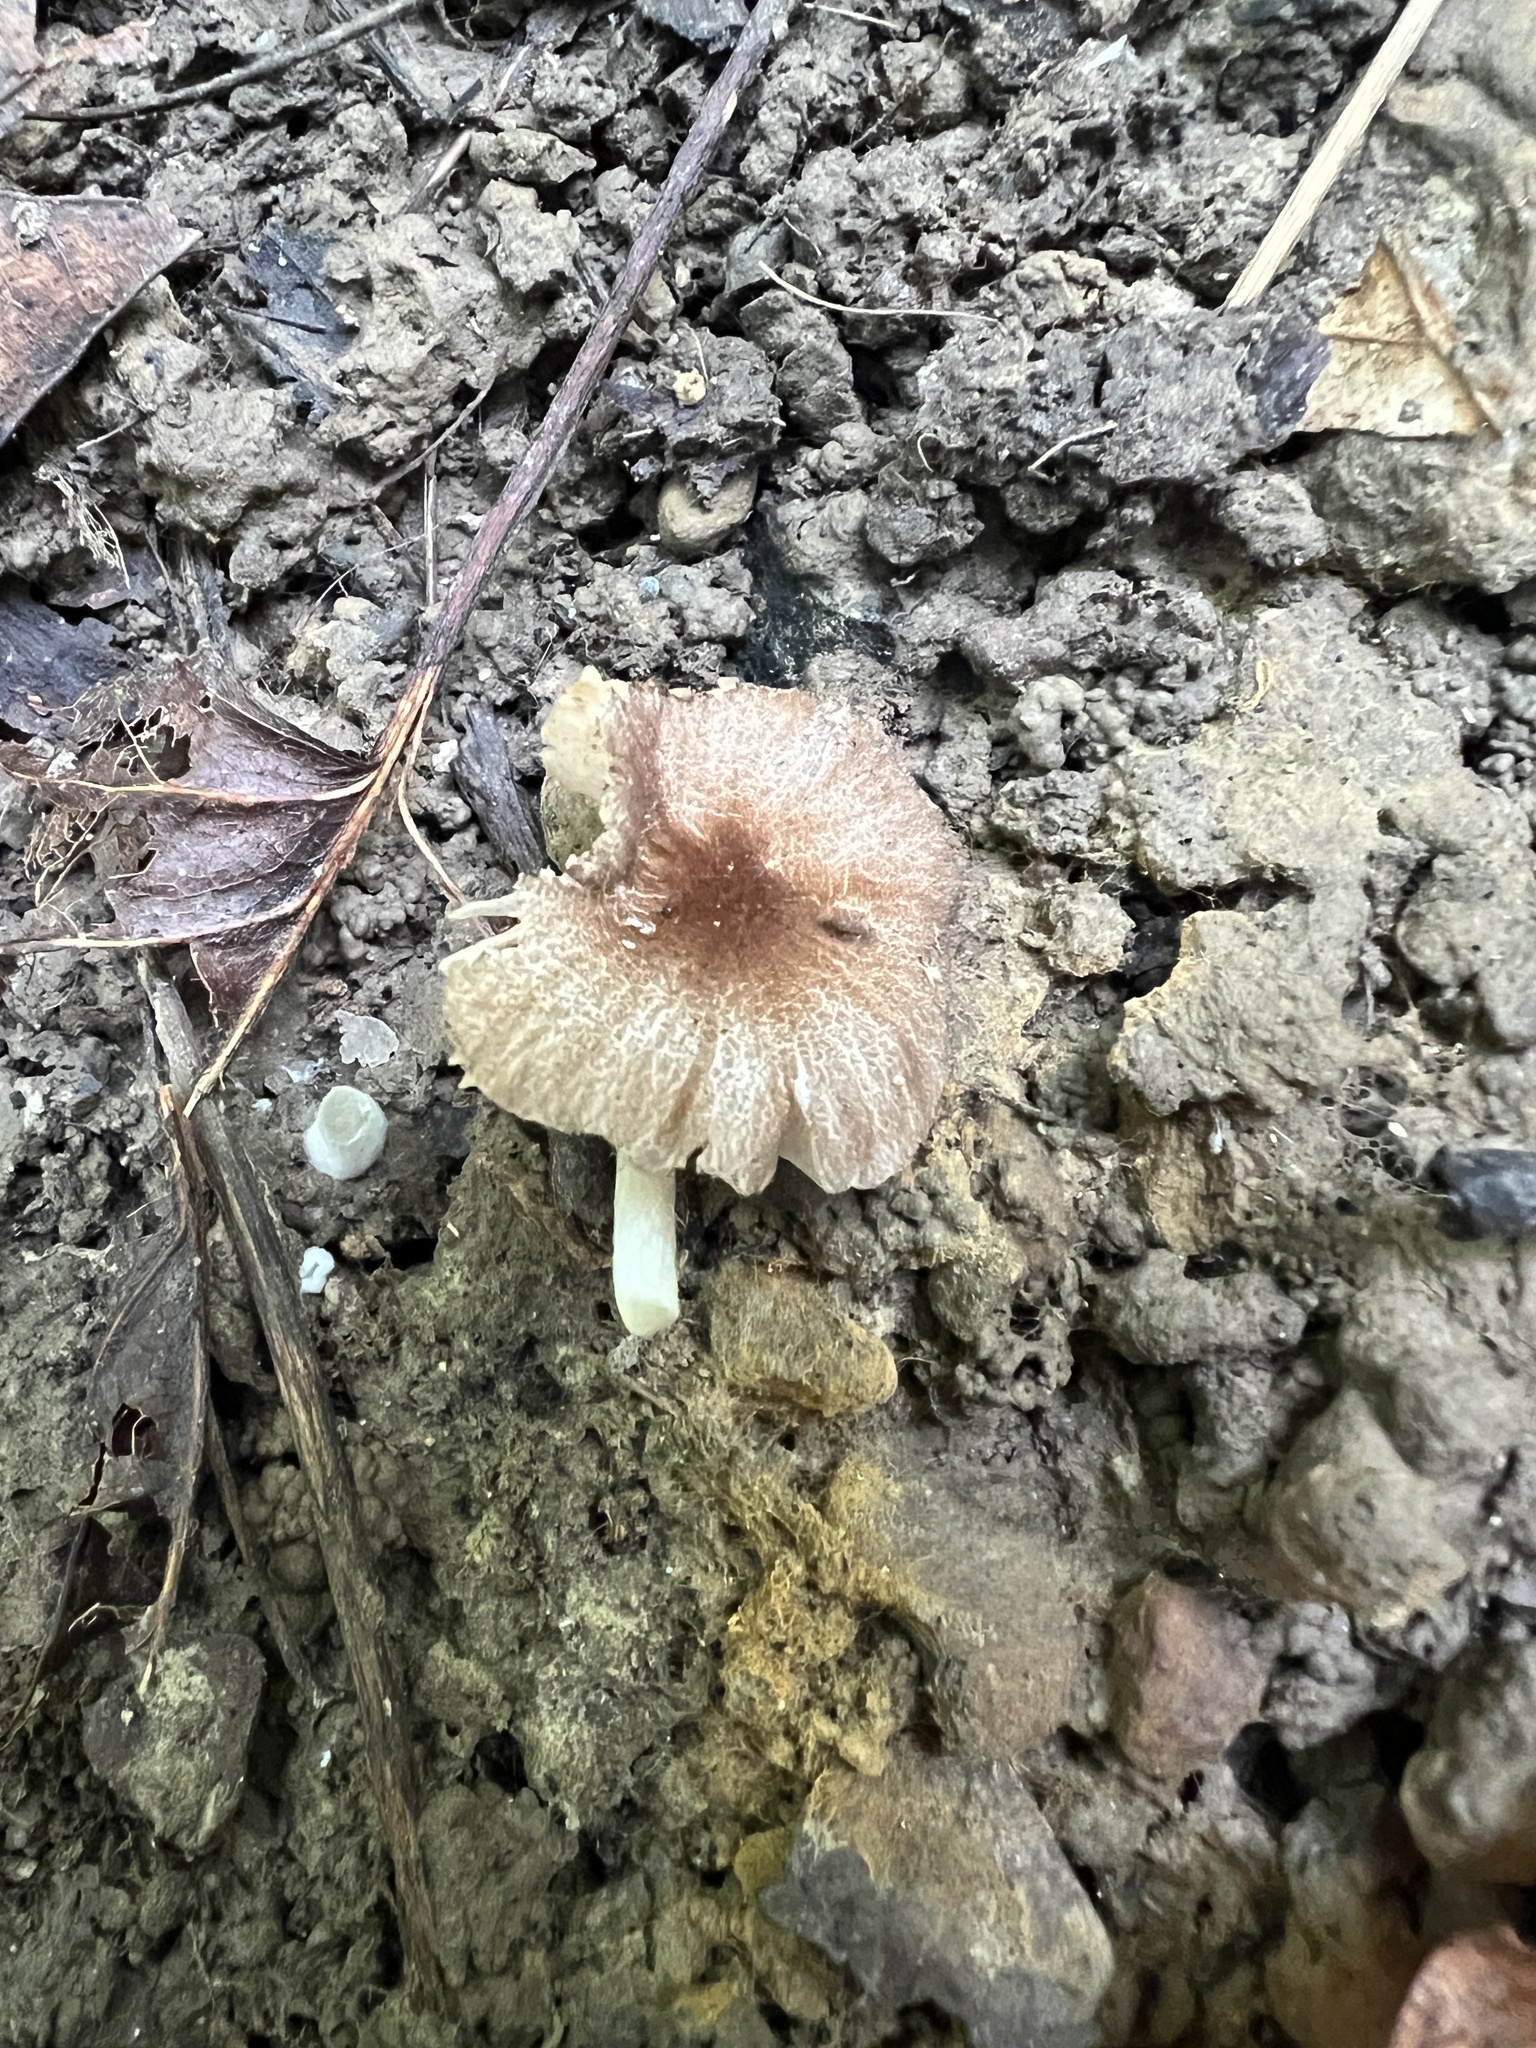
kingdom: Fungi
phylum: Basidiomycota
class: Agaricomycetes
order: Agaricales
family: Pluteaceae
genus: Pluteus
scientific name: Pluteus
